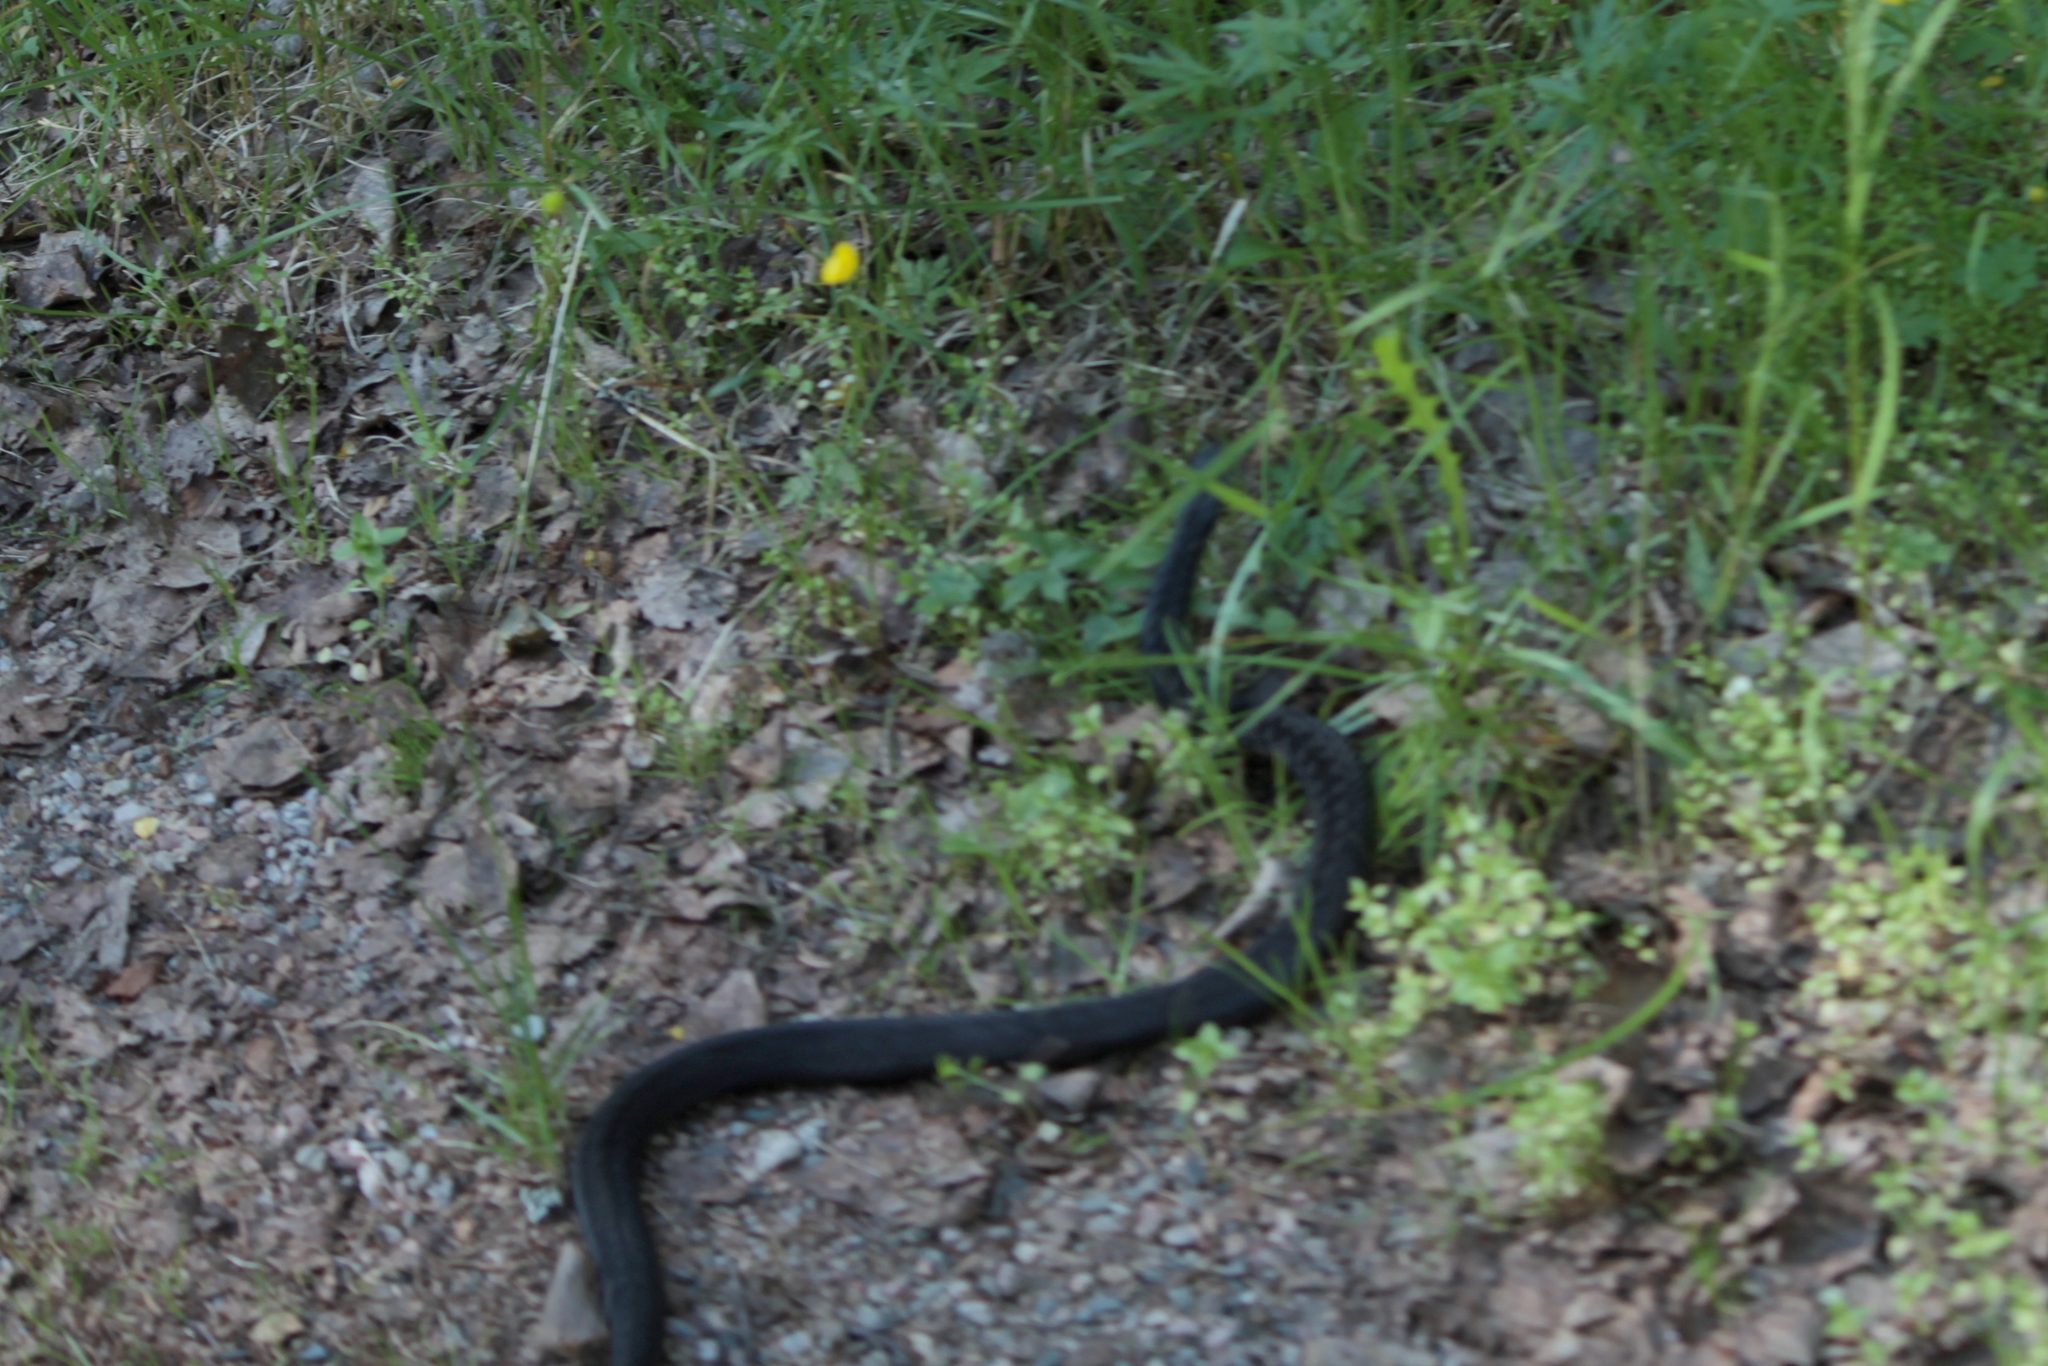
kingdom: Animalia
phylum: Chordata
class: Squamata
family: Viperidae
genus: Vipera
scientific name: Vipera berus
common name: Adder
